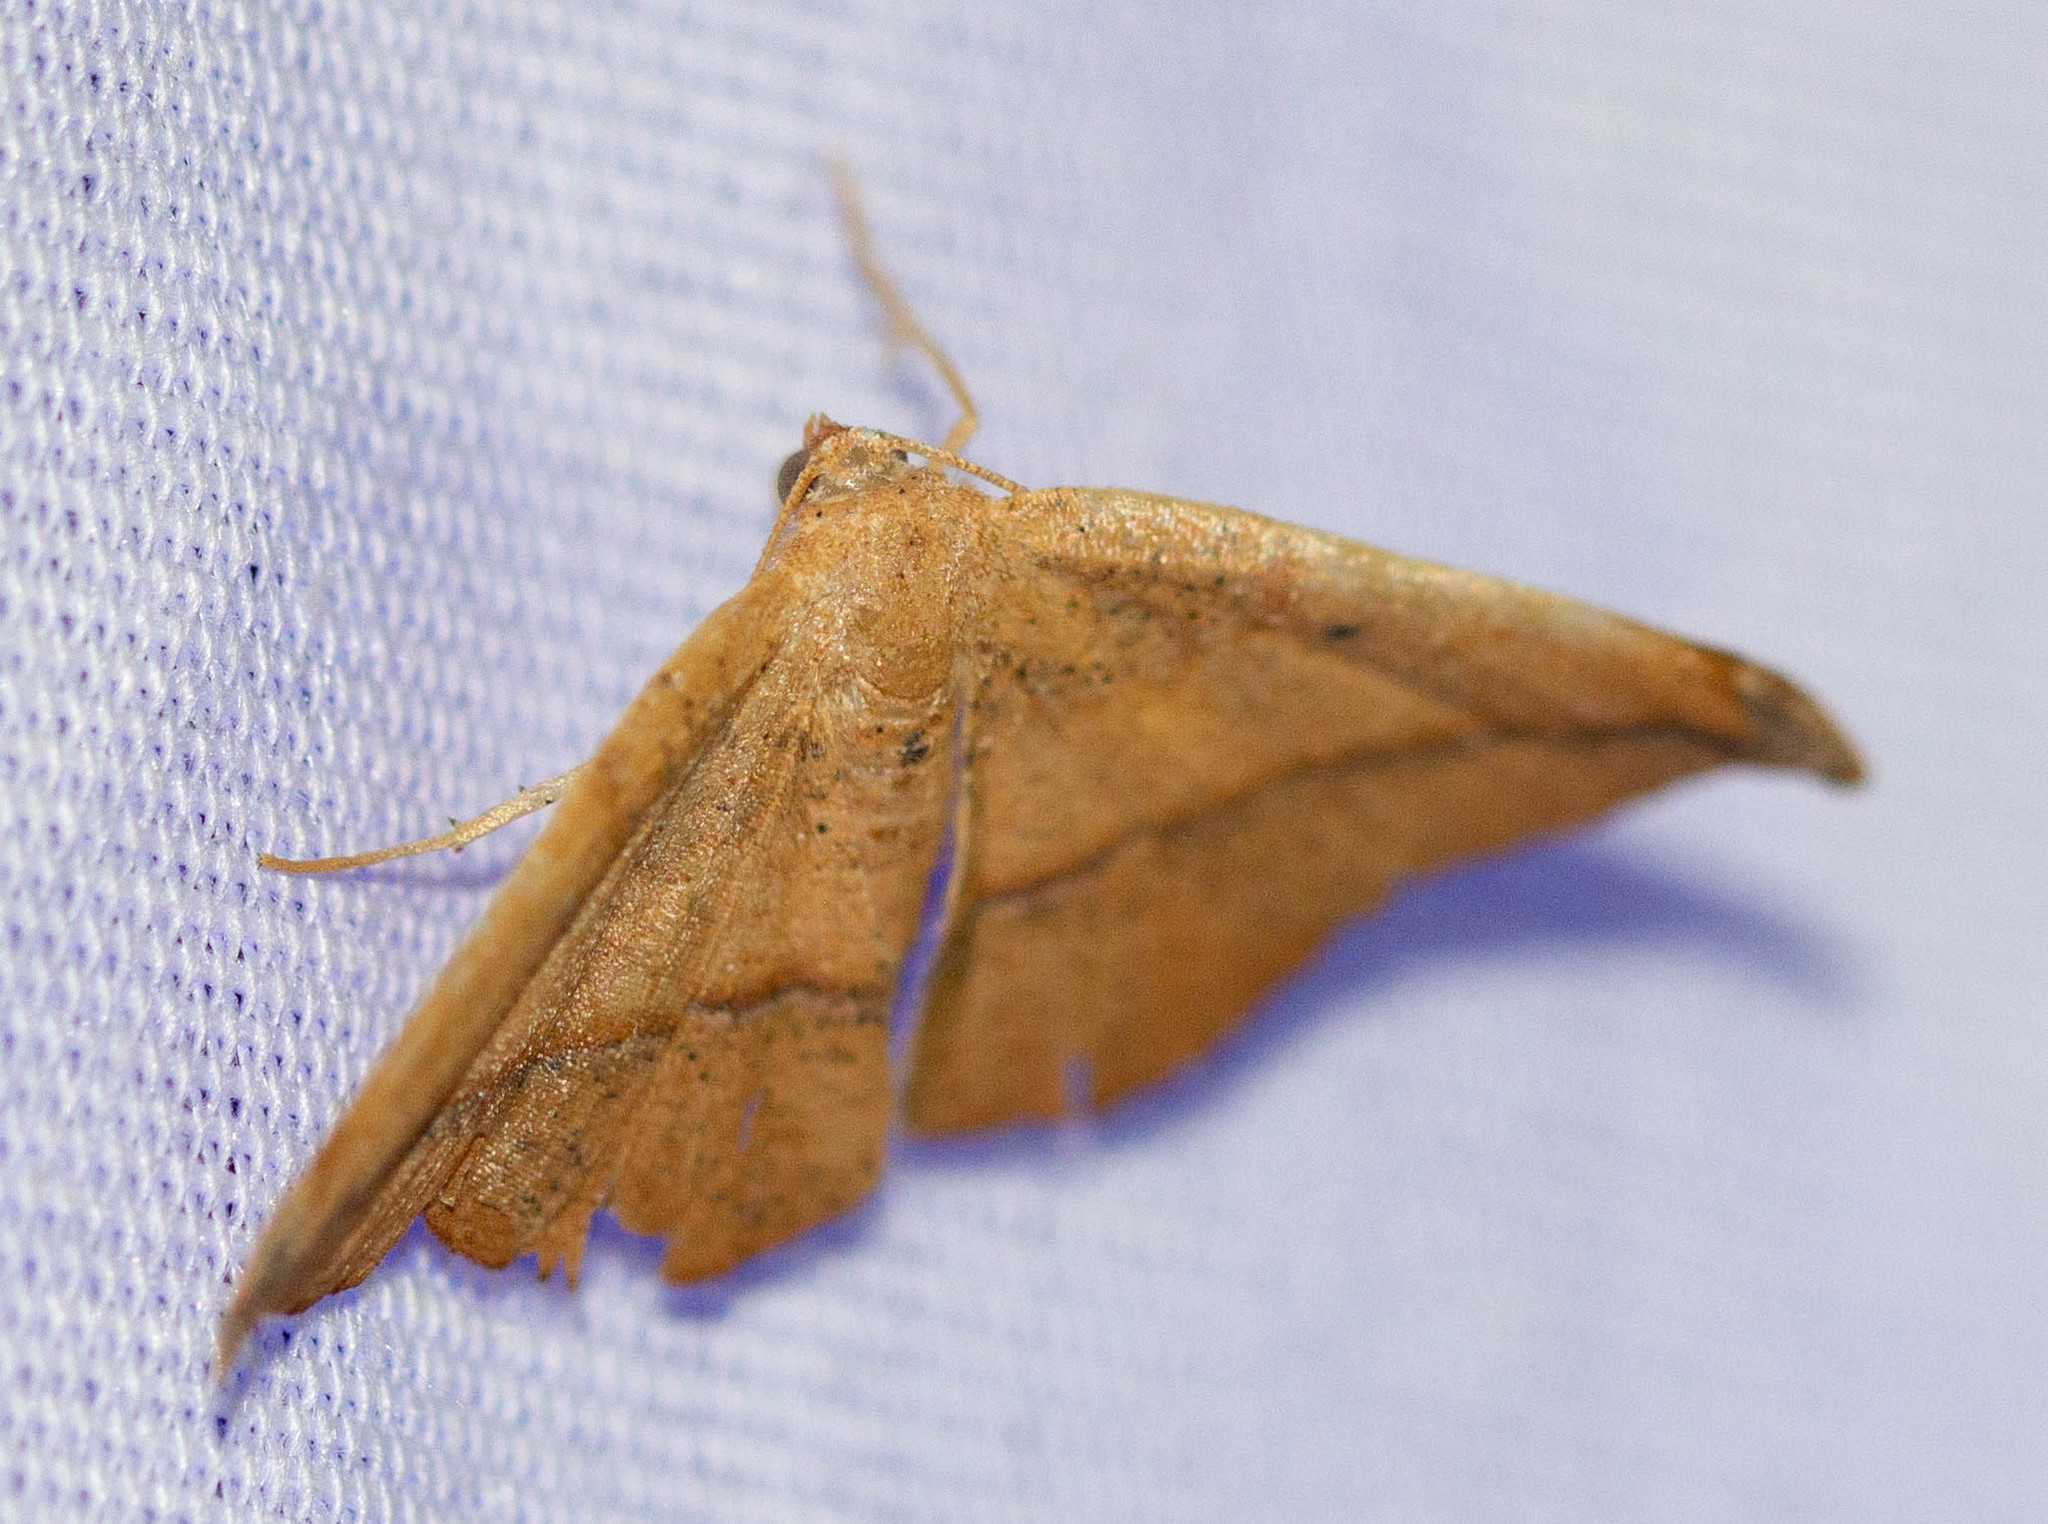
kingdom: Animalia
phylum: Arthropoda
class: Insecta
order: Lepidoptera
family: Geometridae
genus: Patalene
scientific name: Patalene olyzonaria
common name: Juniper geometer moth
